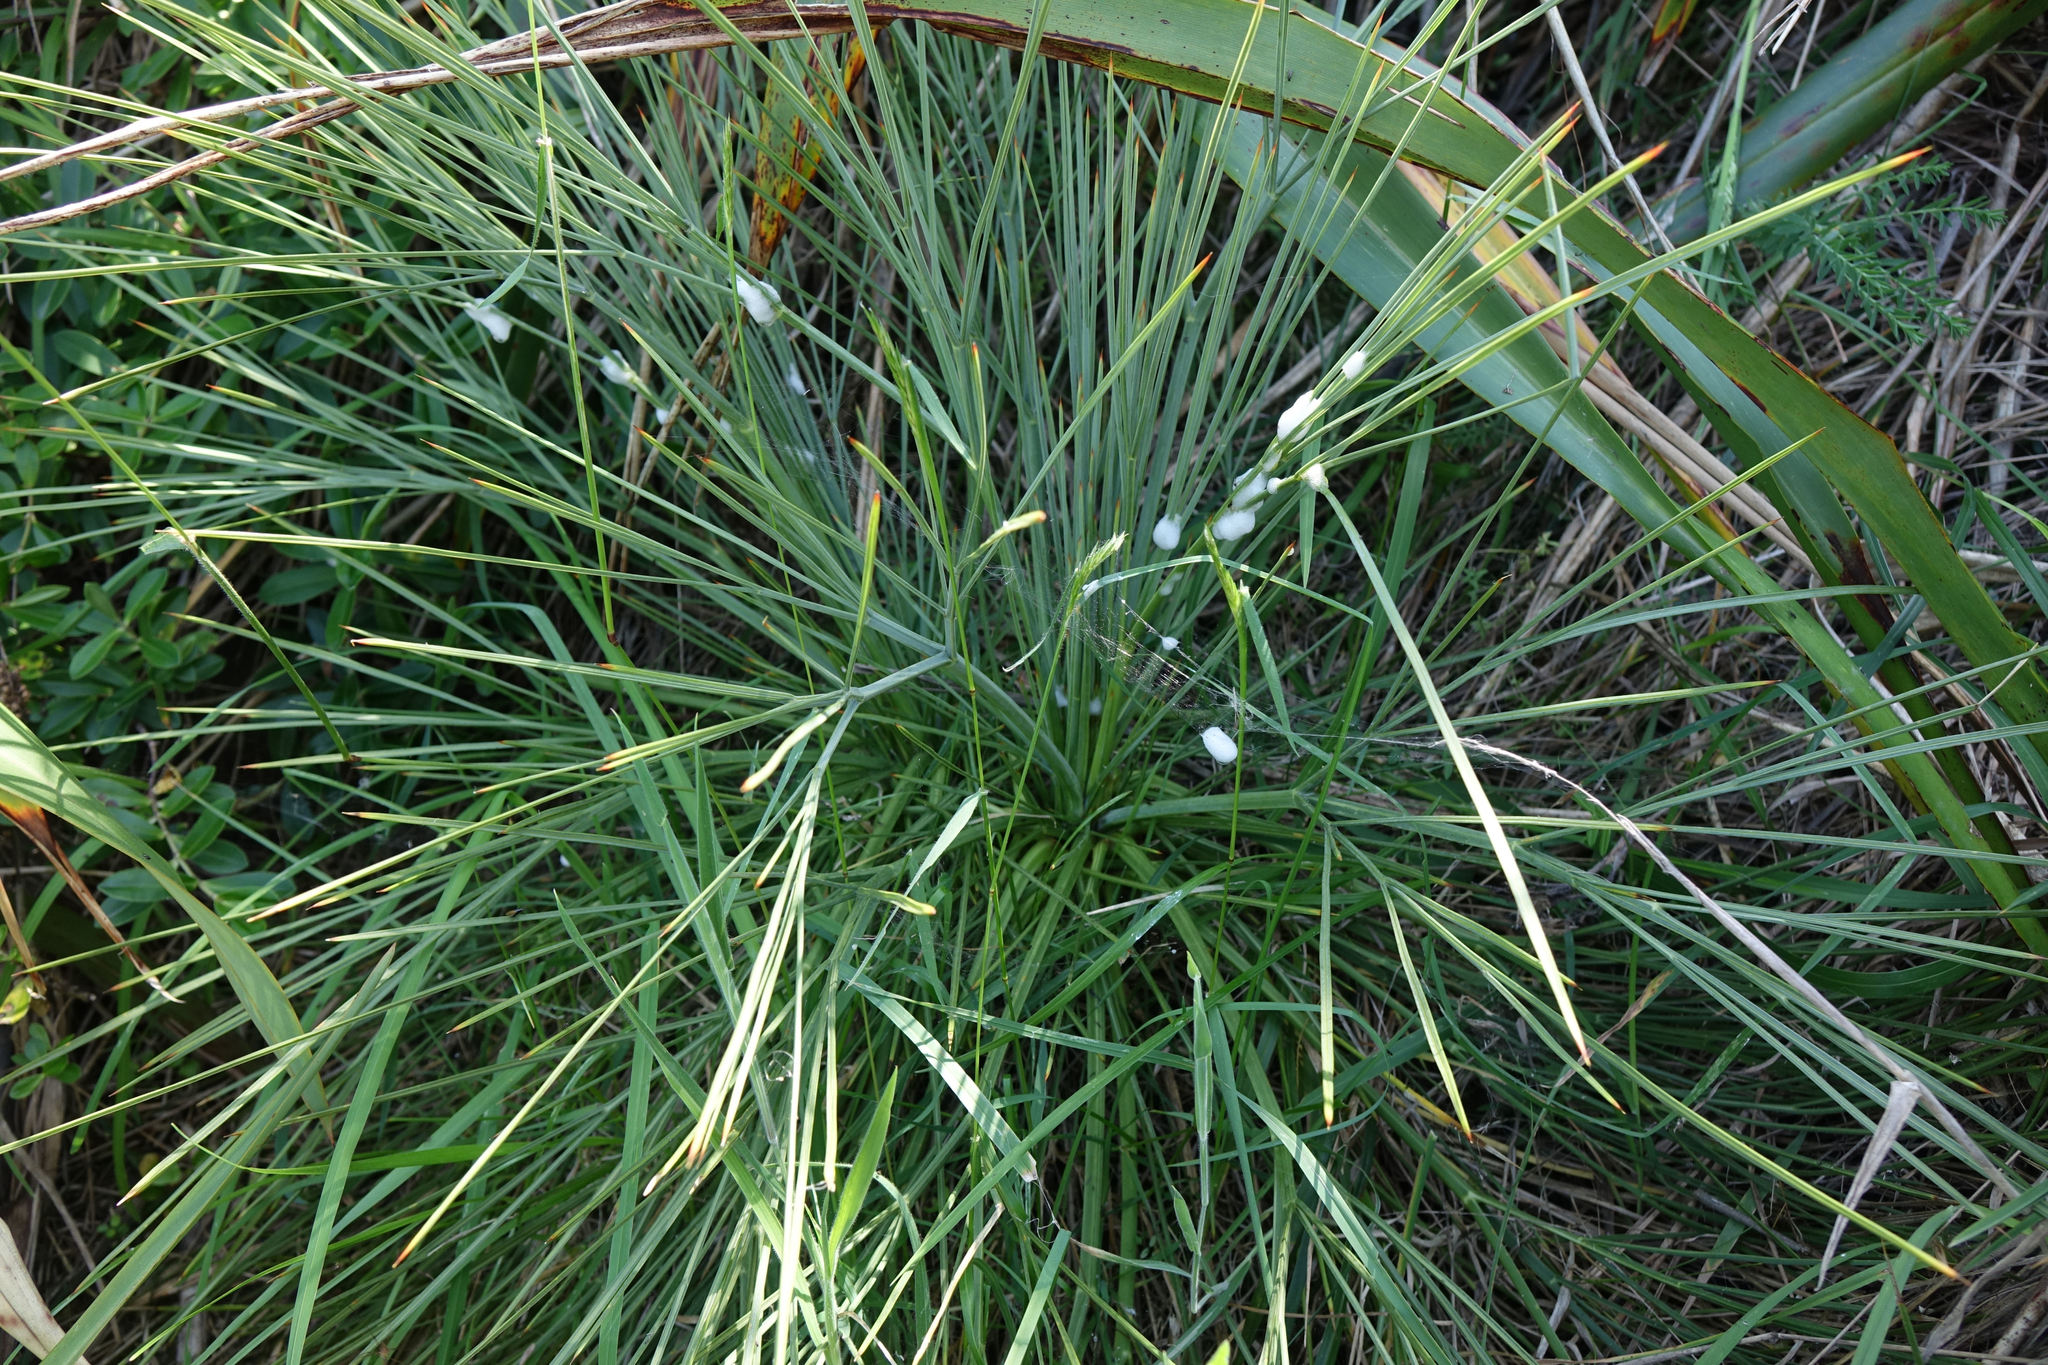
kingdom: Plantae
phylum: Tracheophyta
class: Magnoliopsida
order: Apiales
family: Apiaceae
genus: Aciphylla
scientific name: Aciphylla squarrosa
